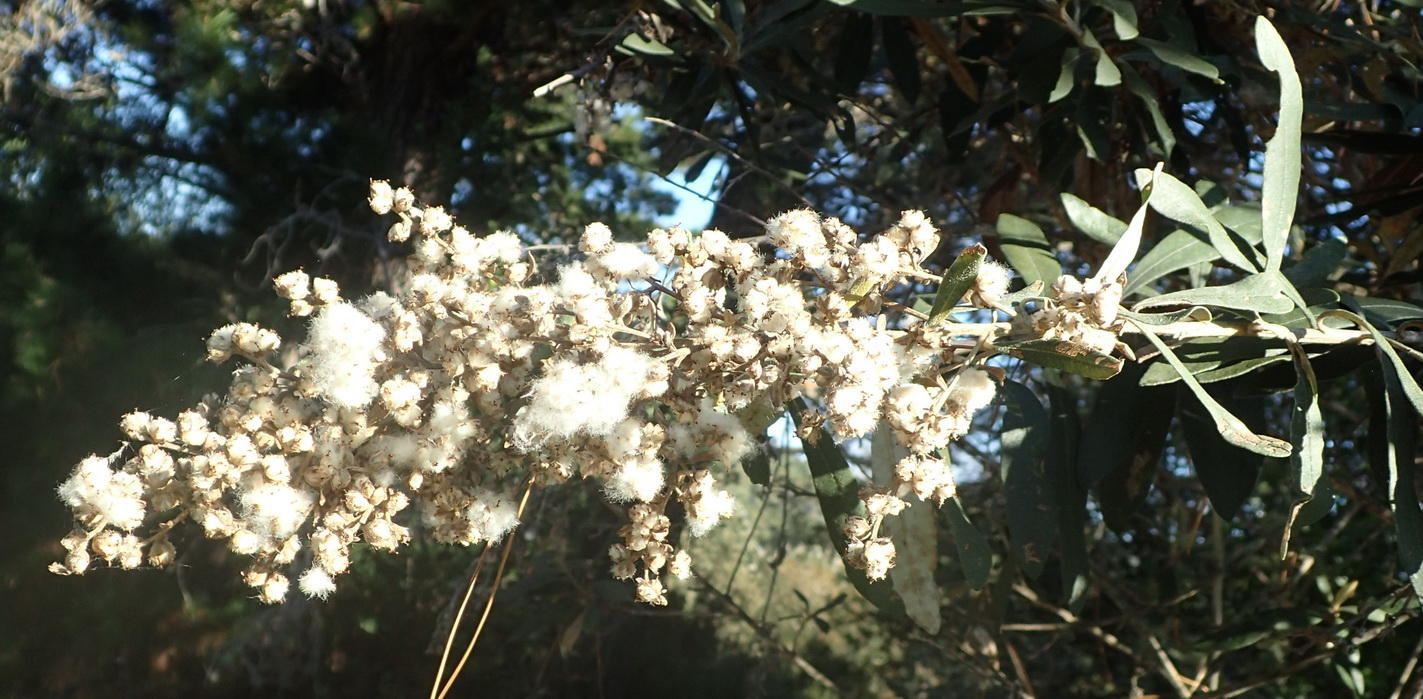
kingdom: Plantae
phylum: Tracheophyta
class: Magnoliopsida
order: Asterales
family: Asteraceae
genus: Tarchonanthus
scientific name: Tarchonanthus littoralis
